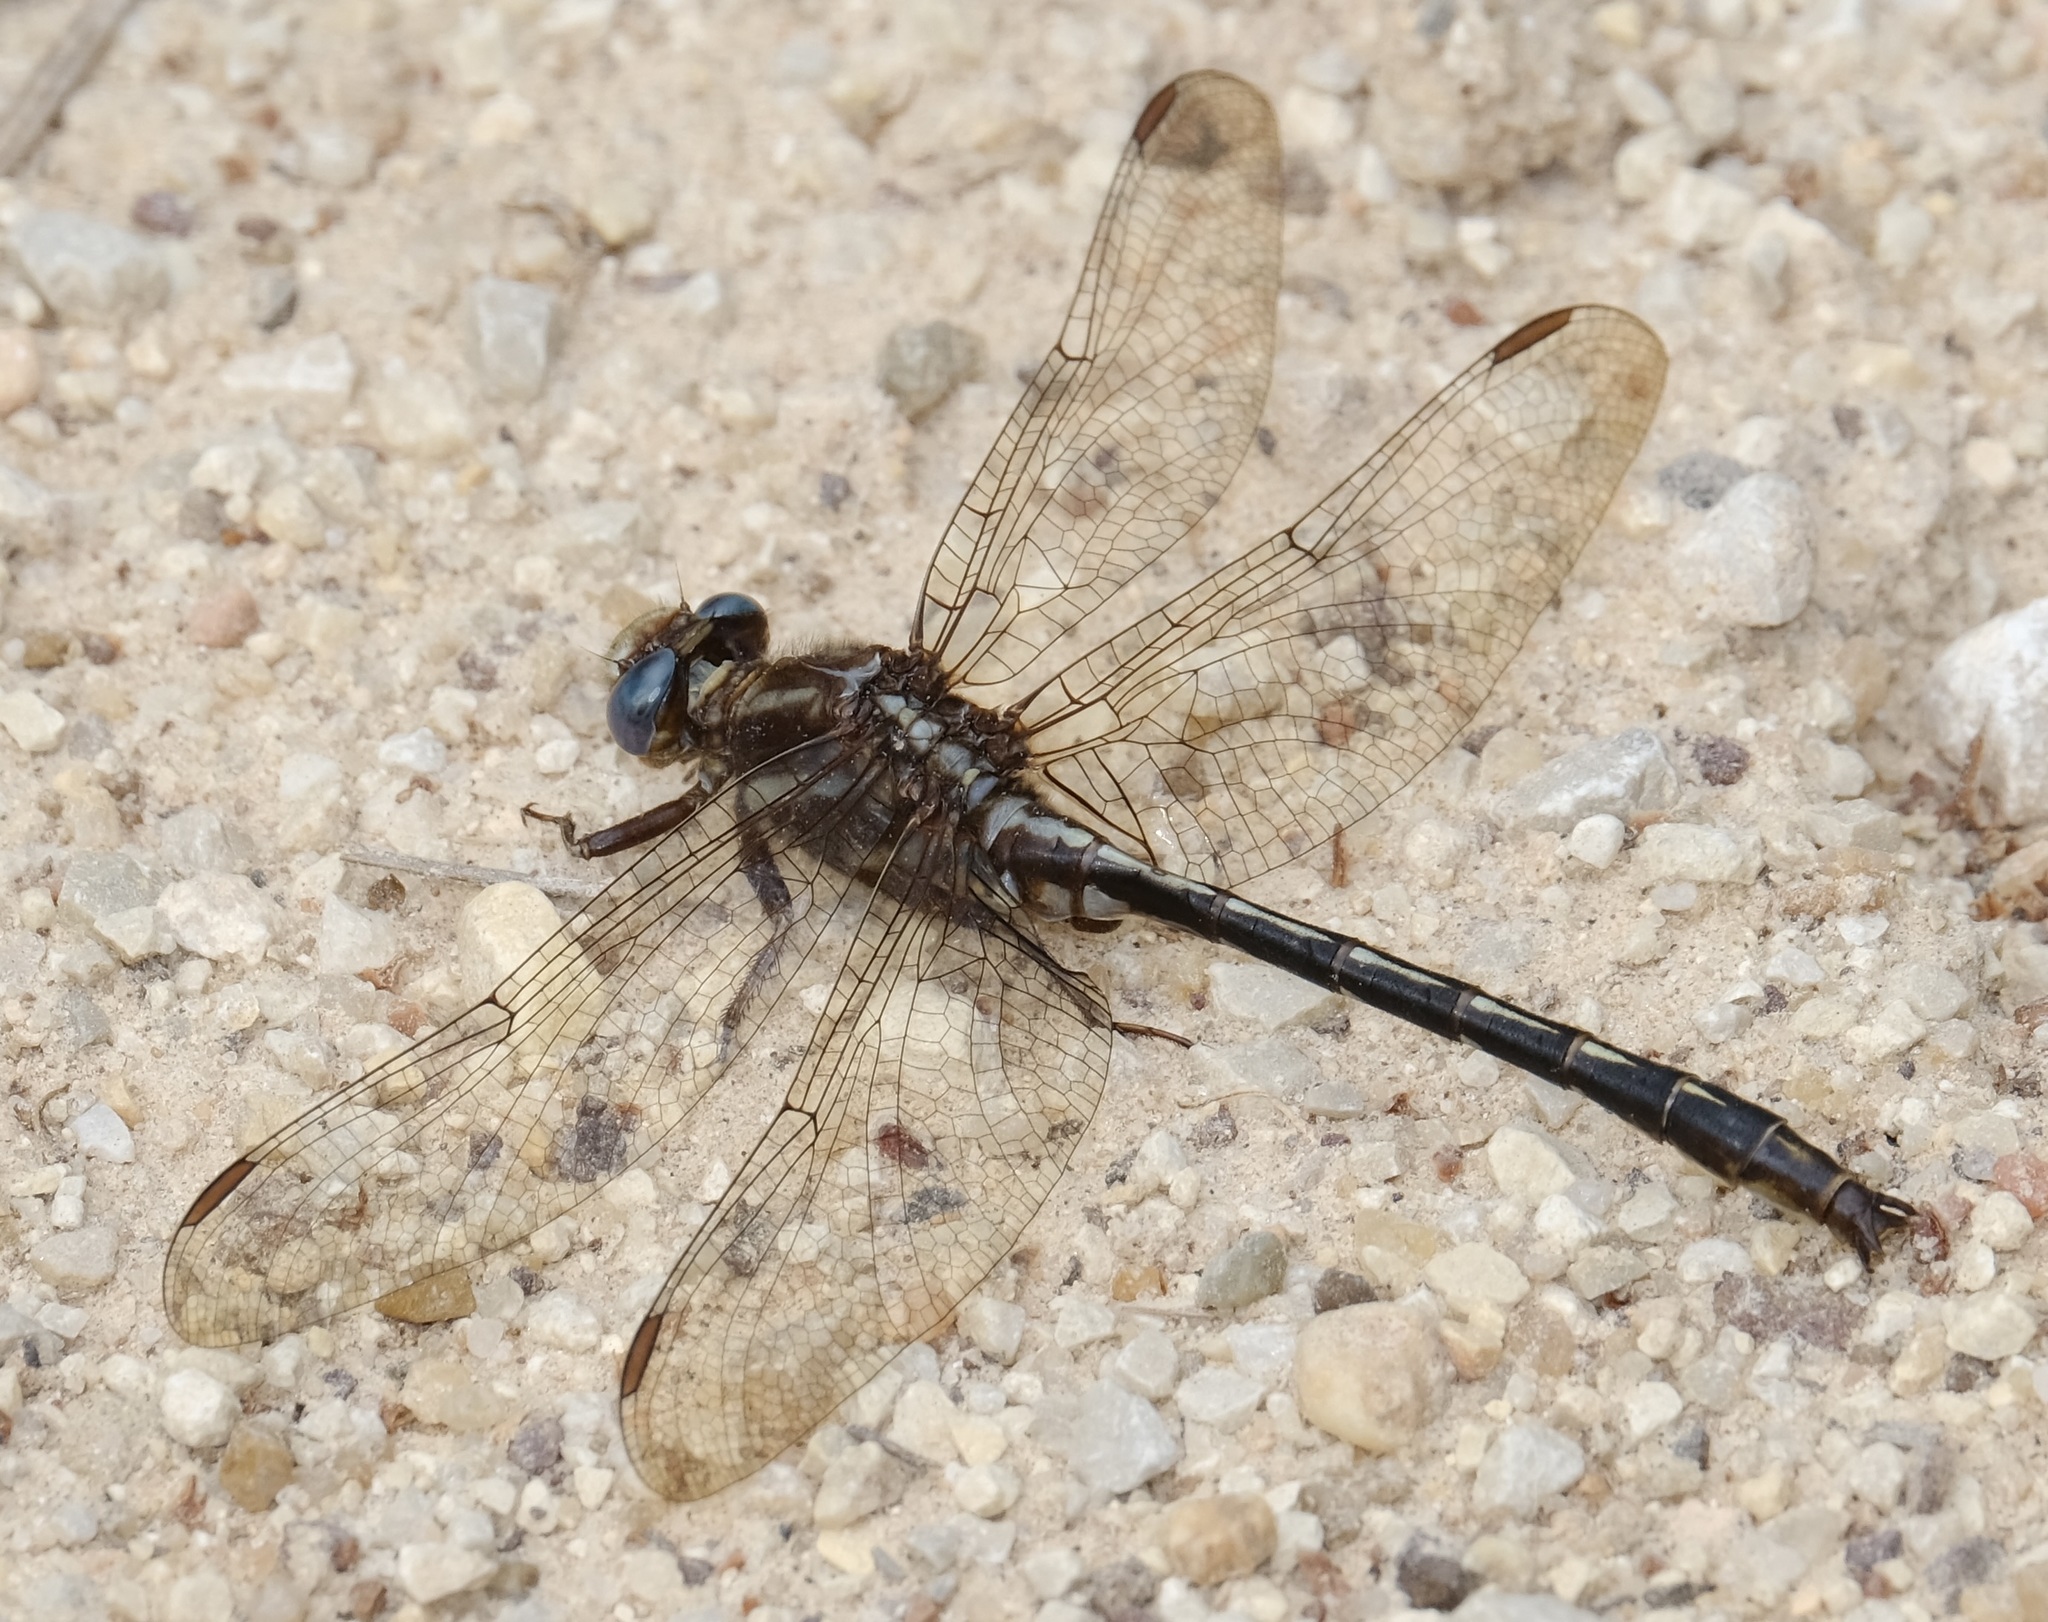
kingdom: Animalia
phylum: Arthropoda
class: Insecta
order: Odonata
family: Gomphidae
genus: Phanogomphus
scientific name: Phanogomphus lividus
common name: Ashy clubtail
